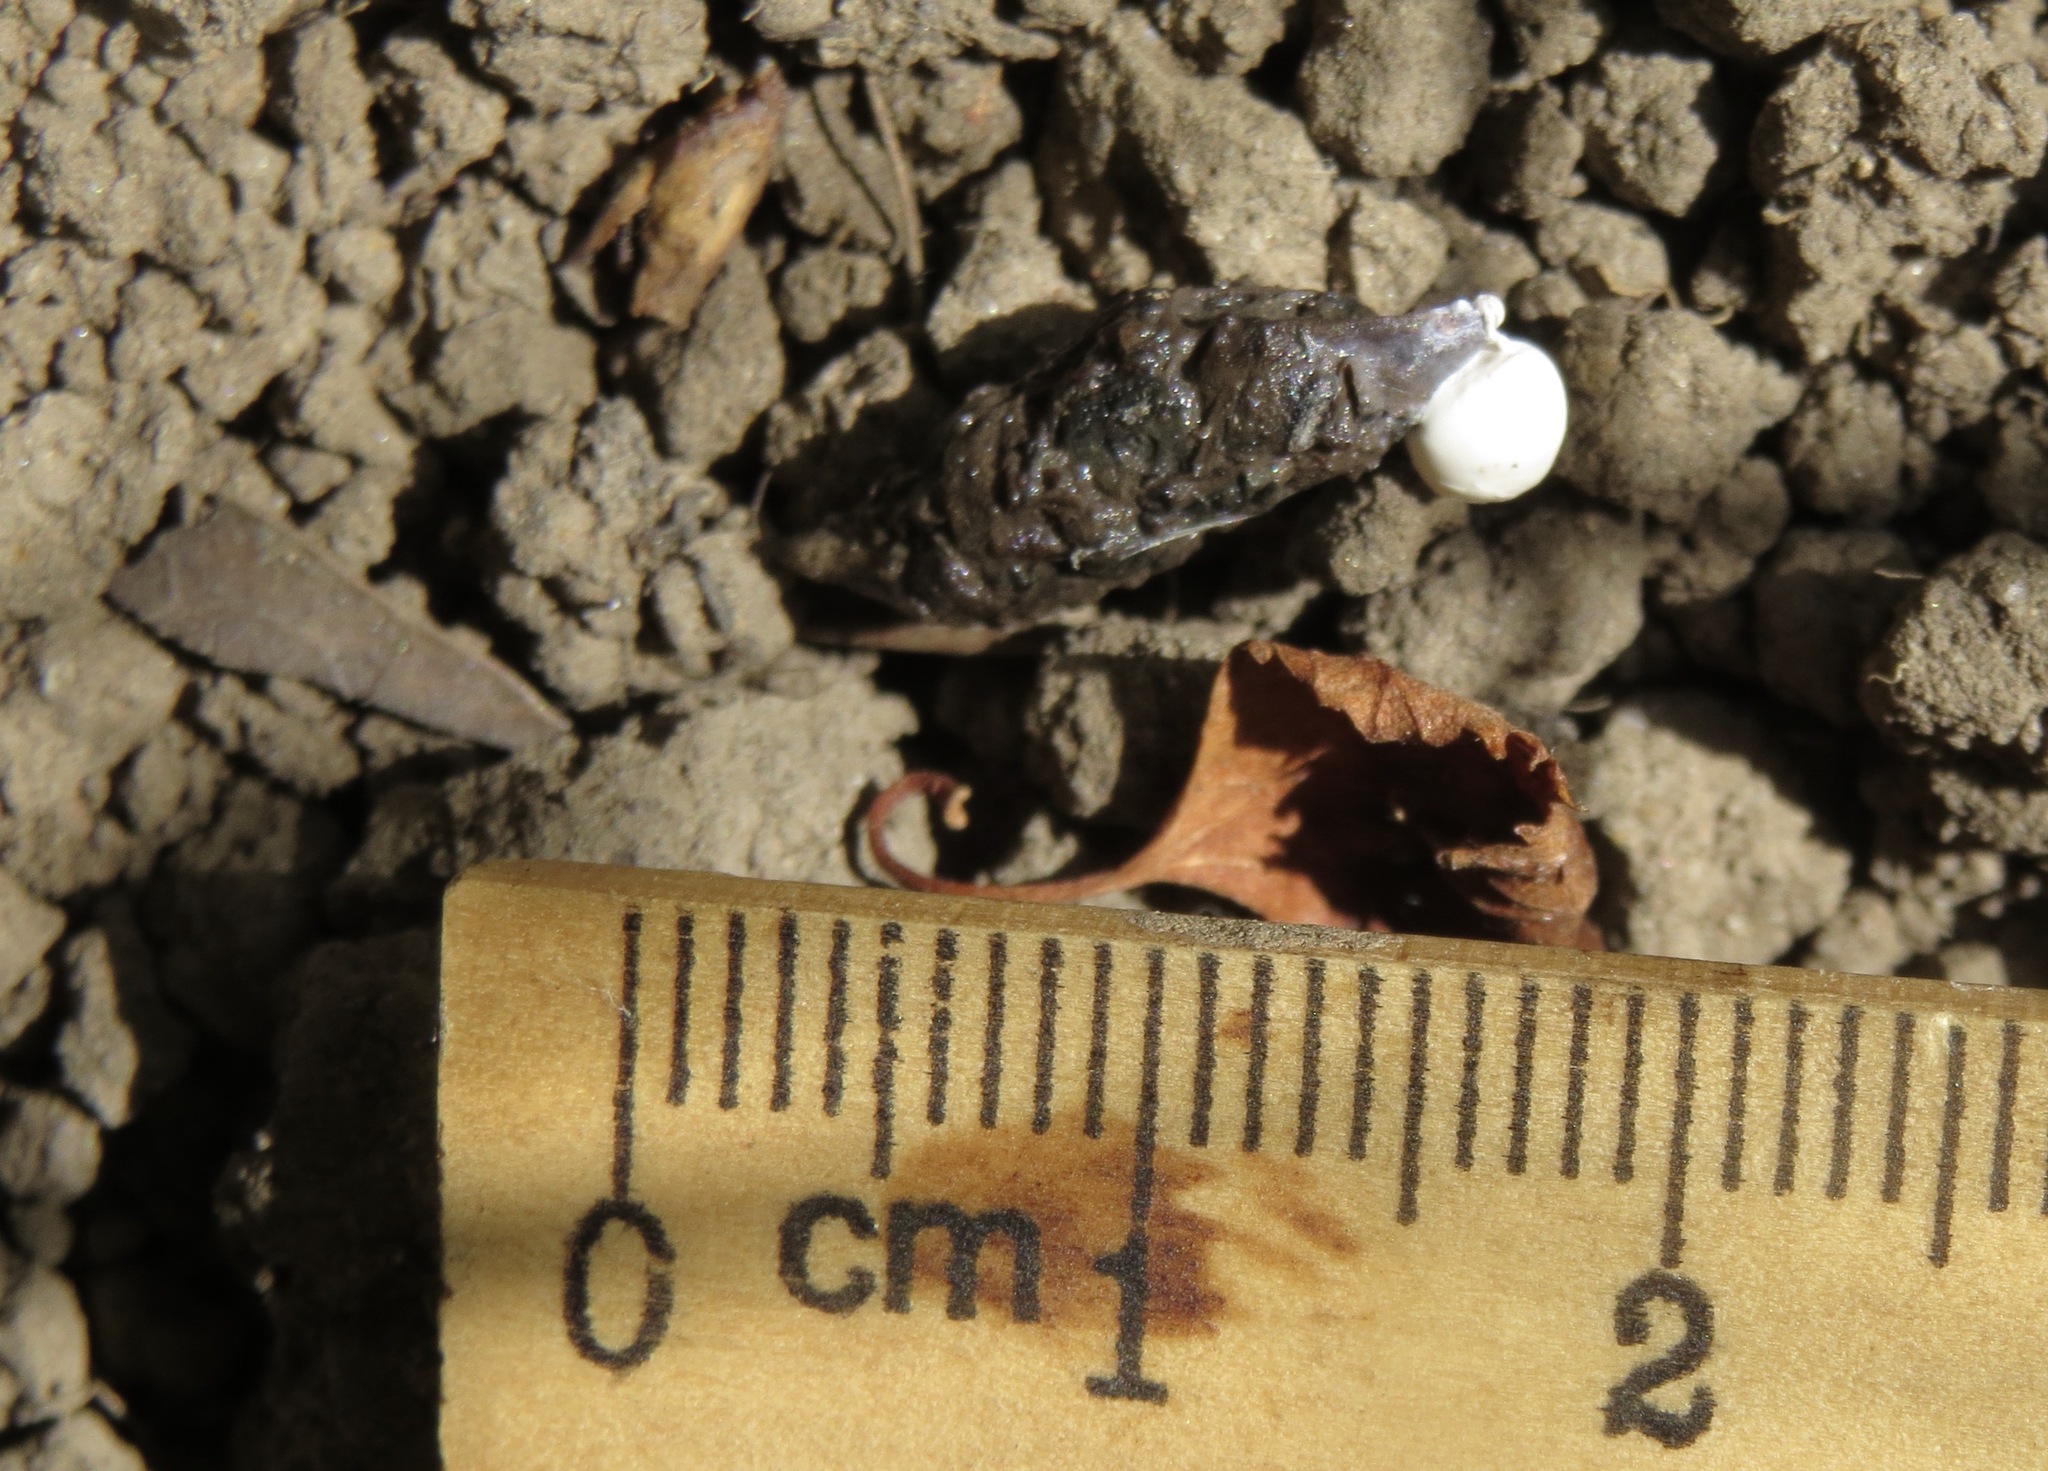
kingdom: Animalia
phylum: Chordata
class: Squamata
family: Phrynosomatidae
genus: Sceloporus
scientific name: Sceloporus occidentalis
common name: Western fence lizard
